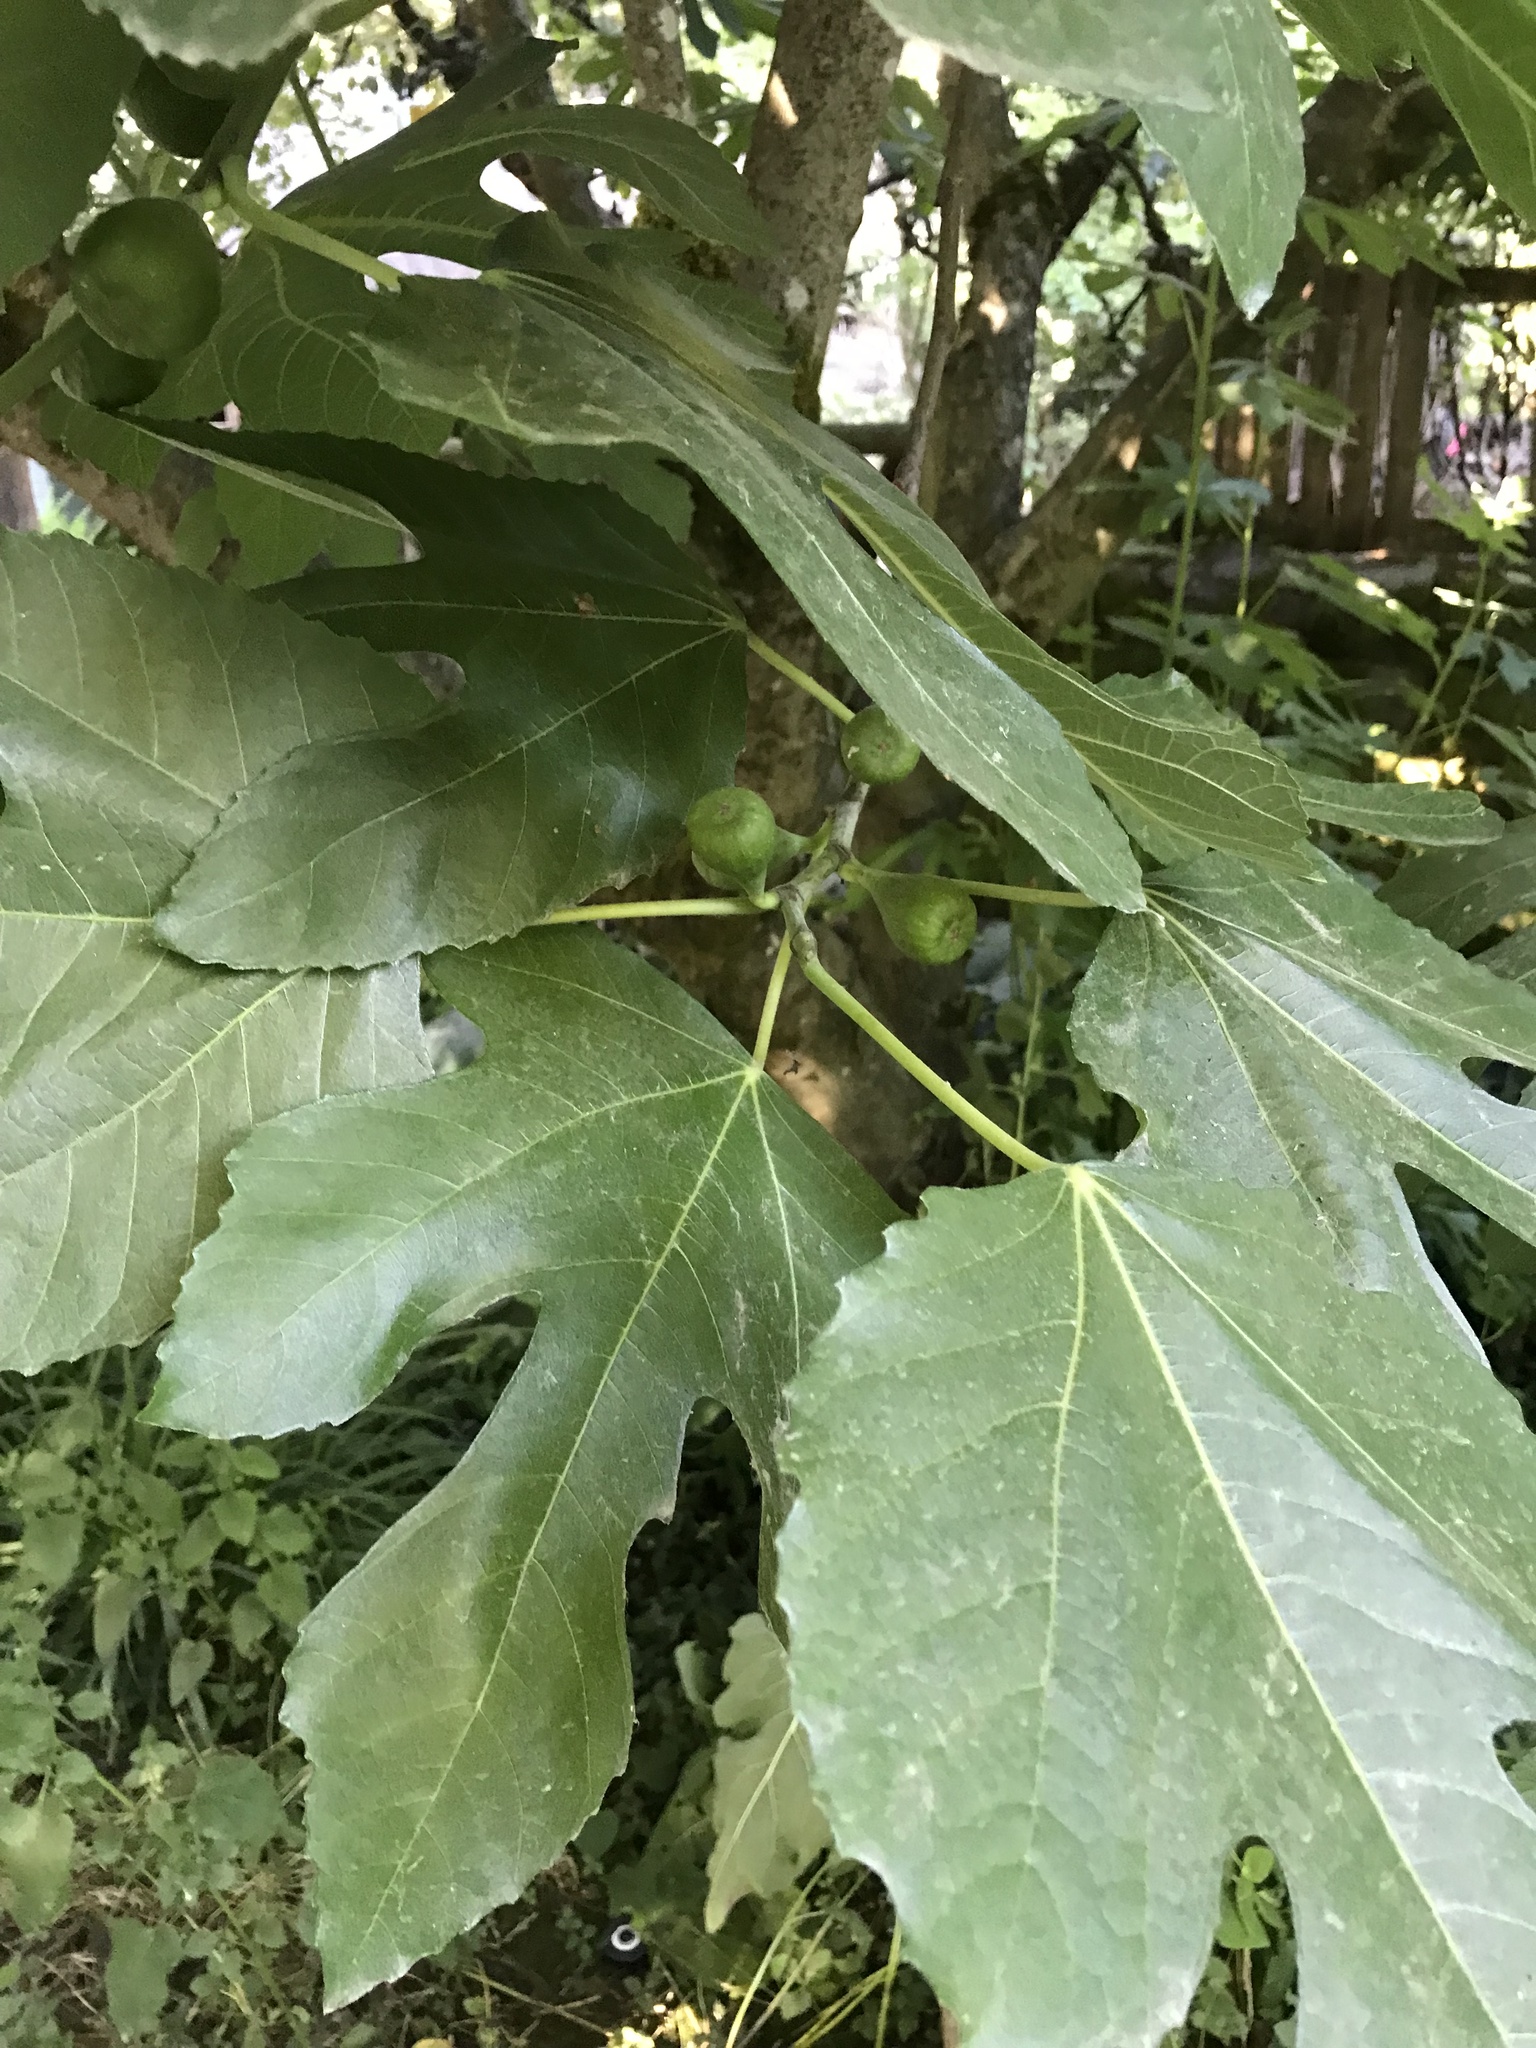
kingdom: Plantae
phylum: Tracheophyta
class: Magnoliopsida
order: Rosales
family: Moraceae
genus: Ficus
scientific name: Ficus carica
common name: Fig
